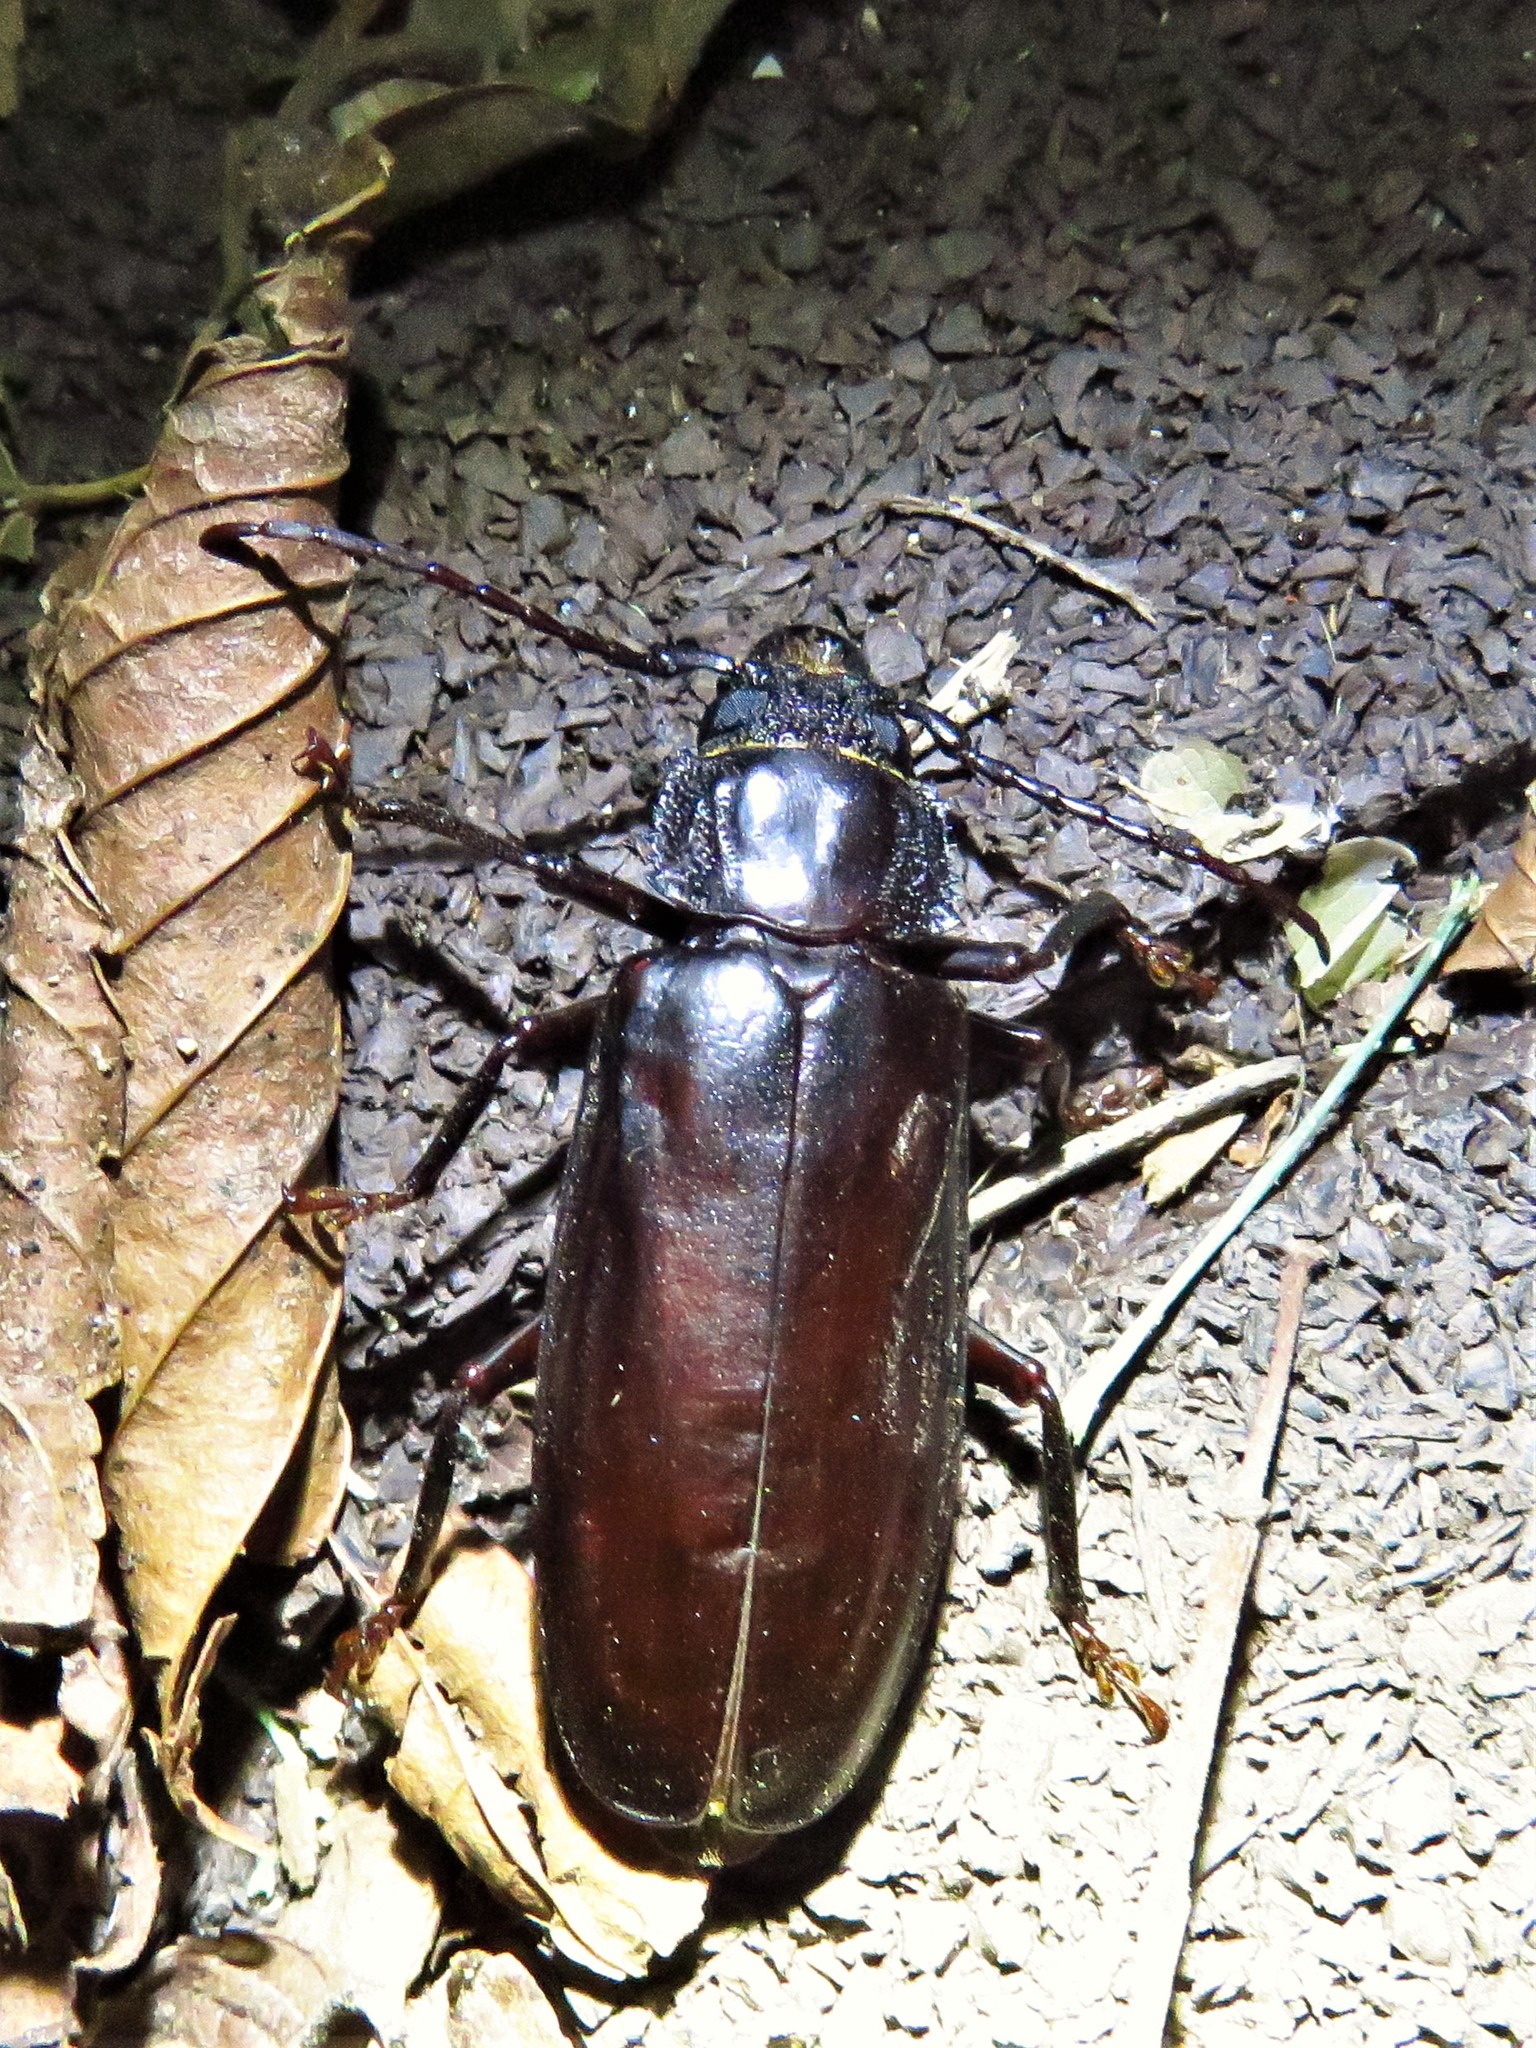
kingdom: Animalia
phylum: Arthropoda
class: Insecta
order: Coleoptera
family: Cerambycidae
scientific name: Cerambycidae
